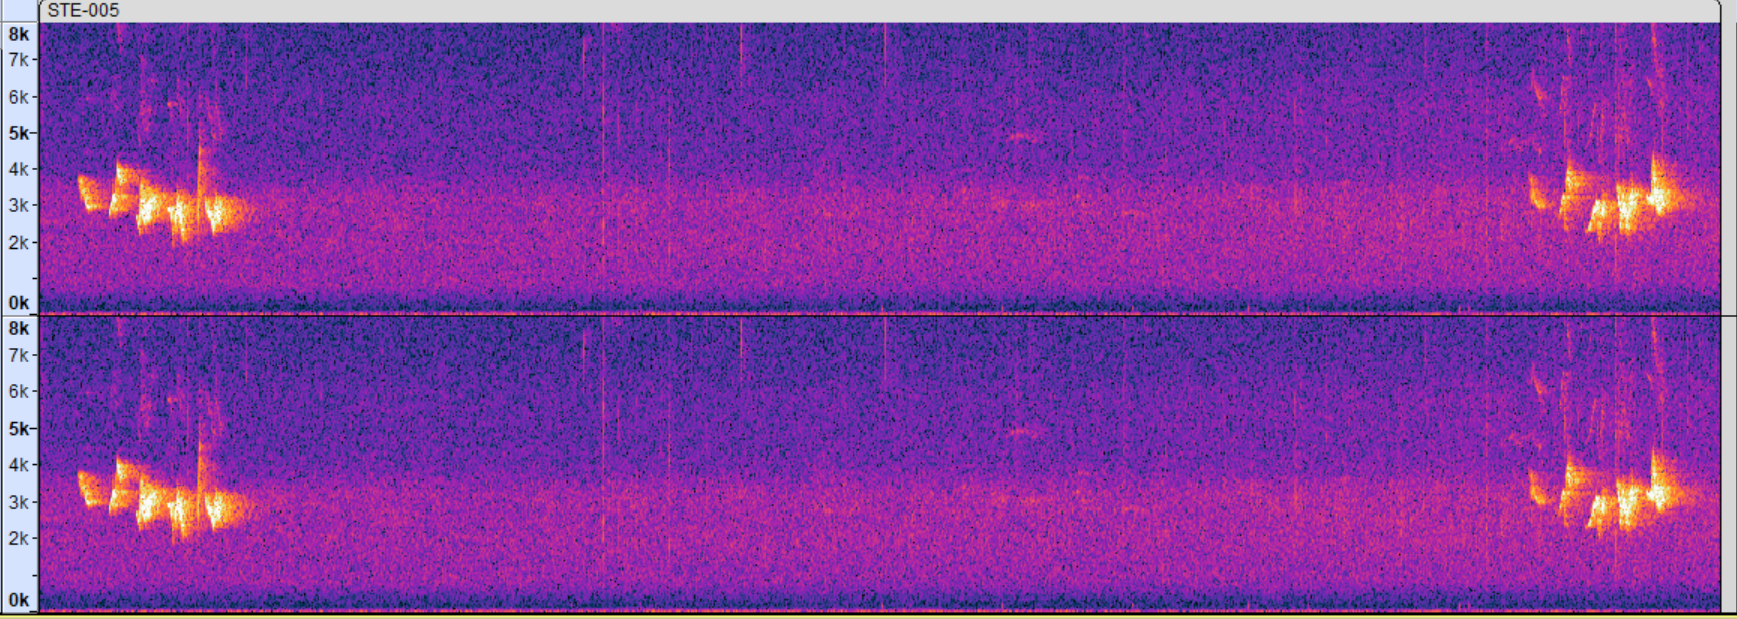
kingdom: Animalia
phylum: Chordata
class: Aves
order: Passeriformes
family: Cardinalidae
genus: Piranga
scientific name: Piranga olivacea
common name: Scarlet tanager
